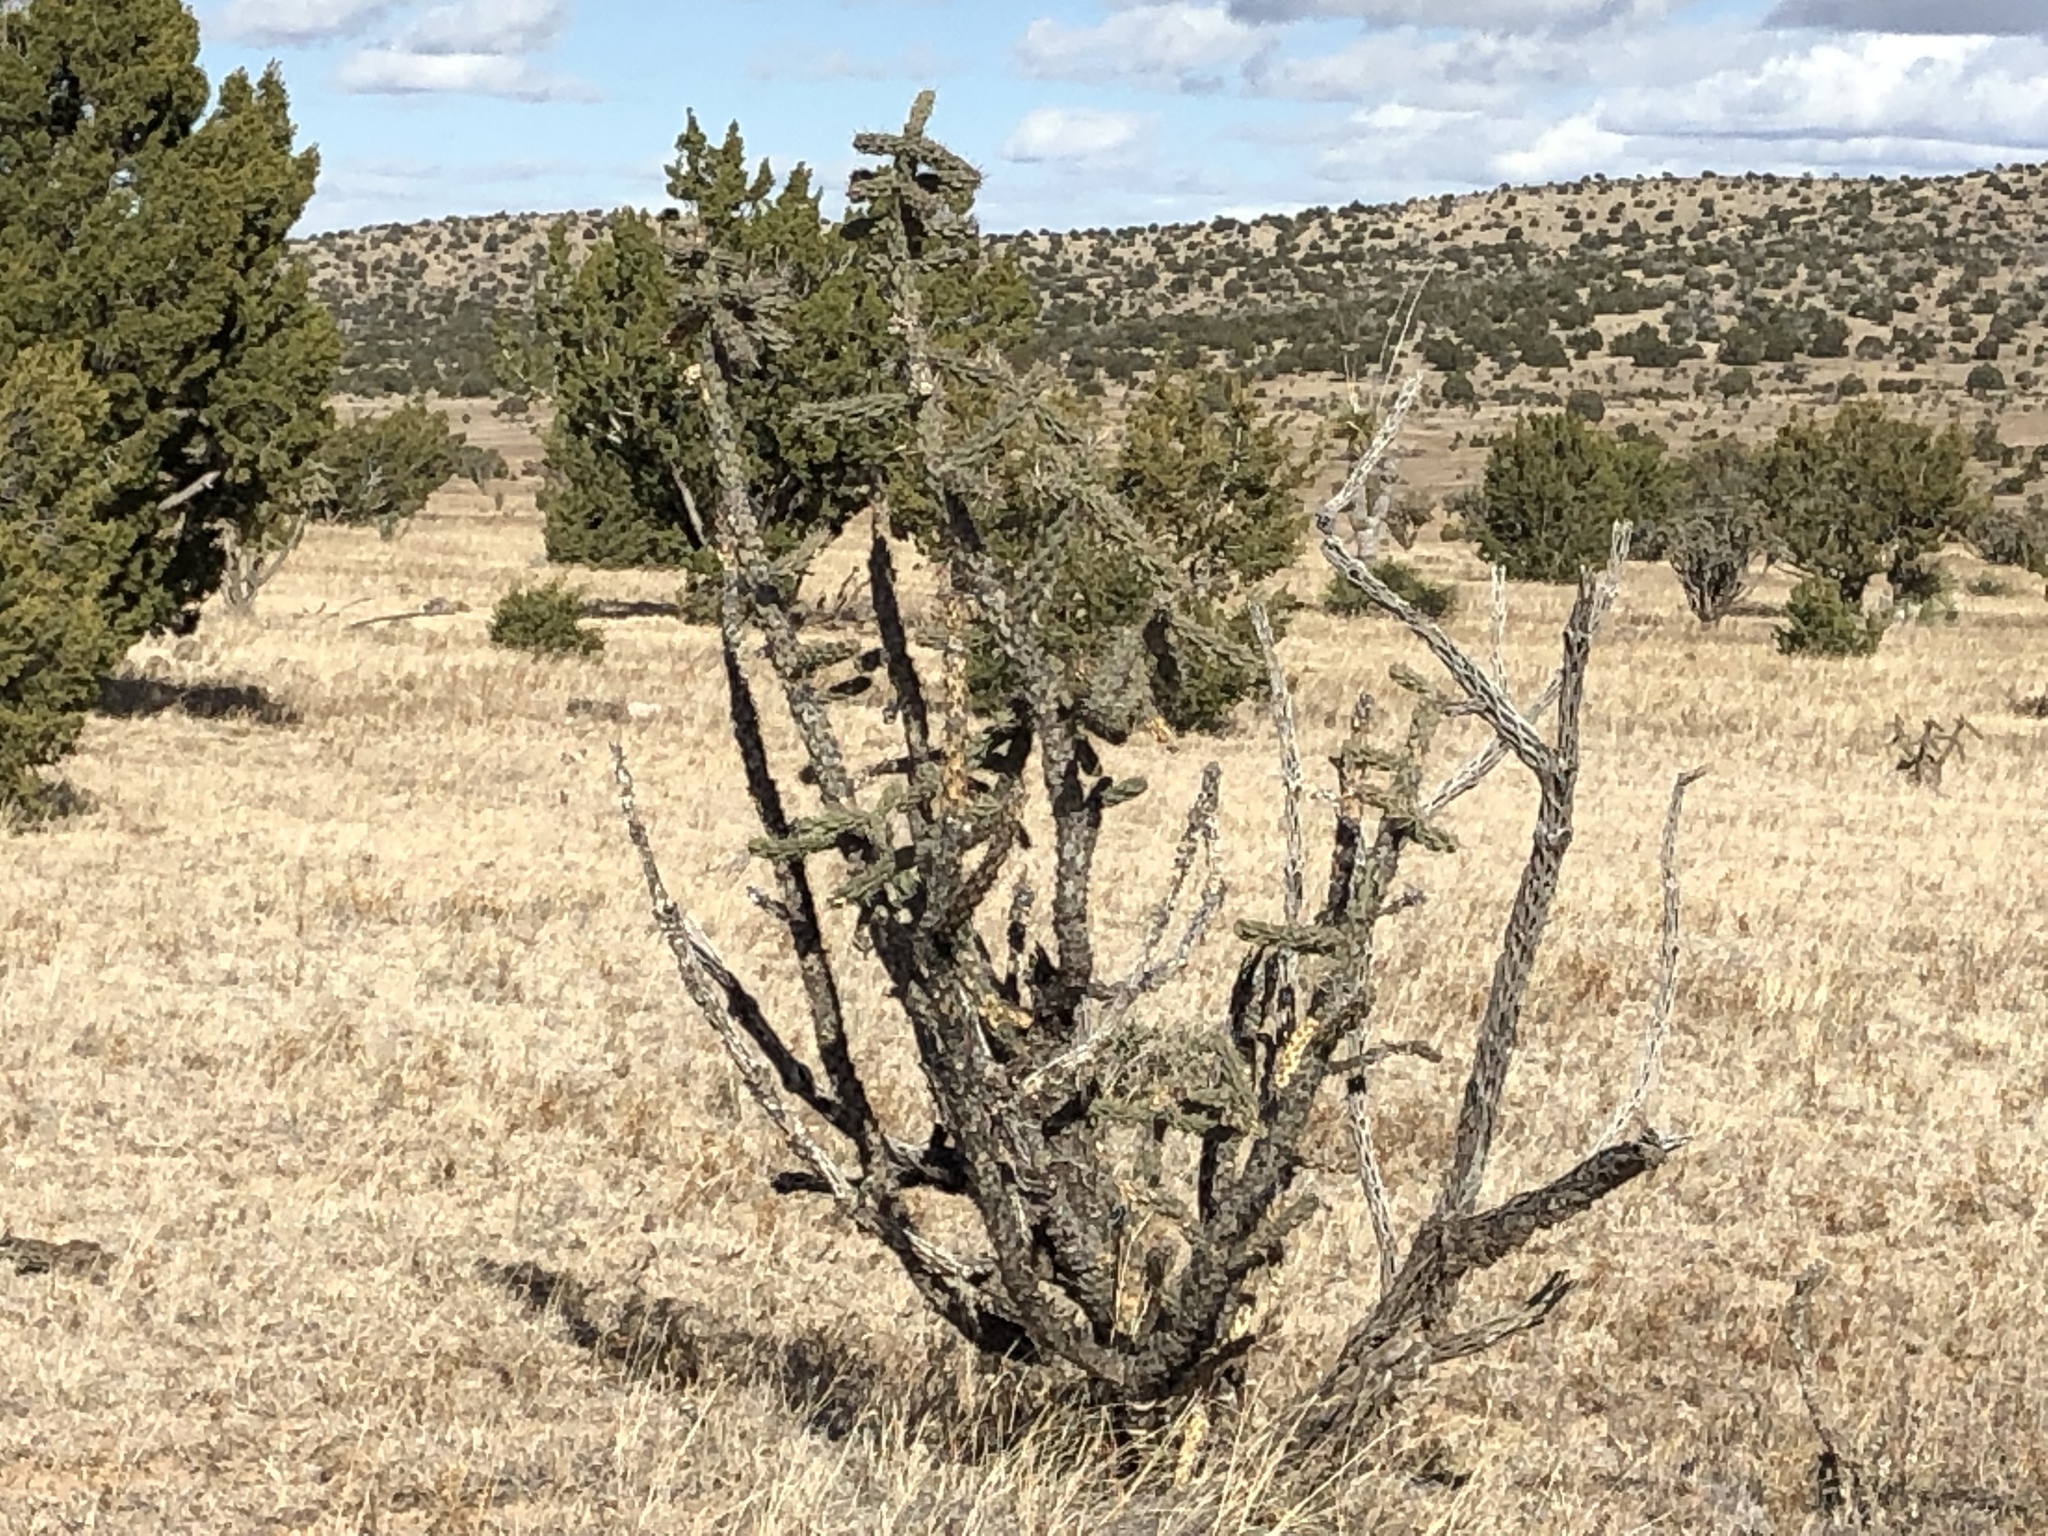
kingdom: Plantae
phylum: Tracheophyta
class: Magnoliopsida
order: Caryophyllales
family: Cactaceae
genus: Cylindropuntia
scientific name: Cylindropuntia imbricata
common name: Candelabrum cactus
